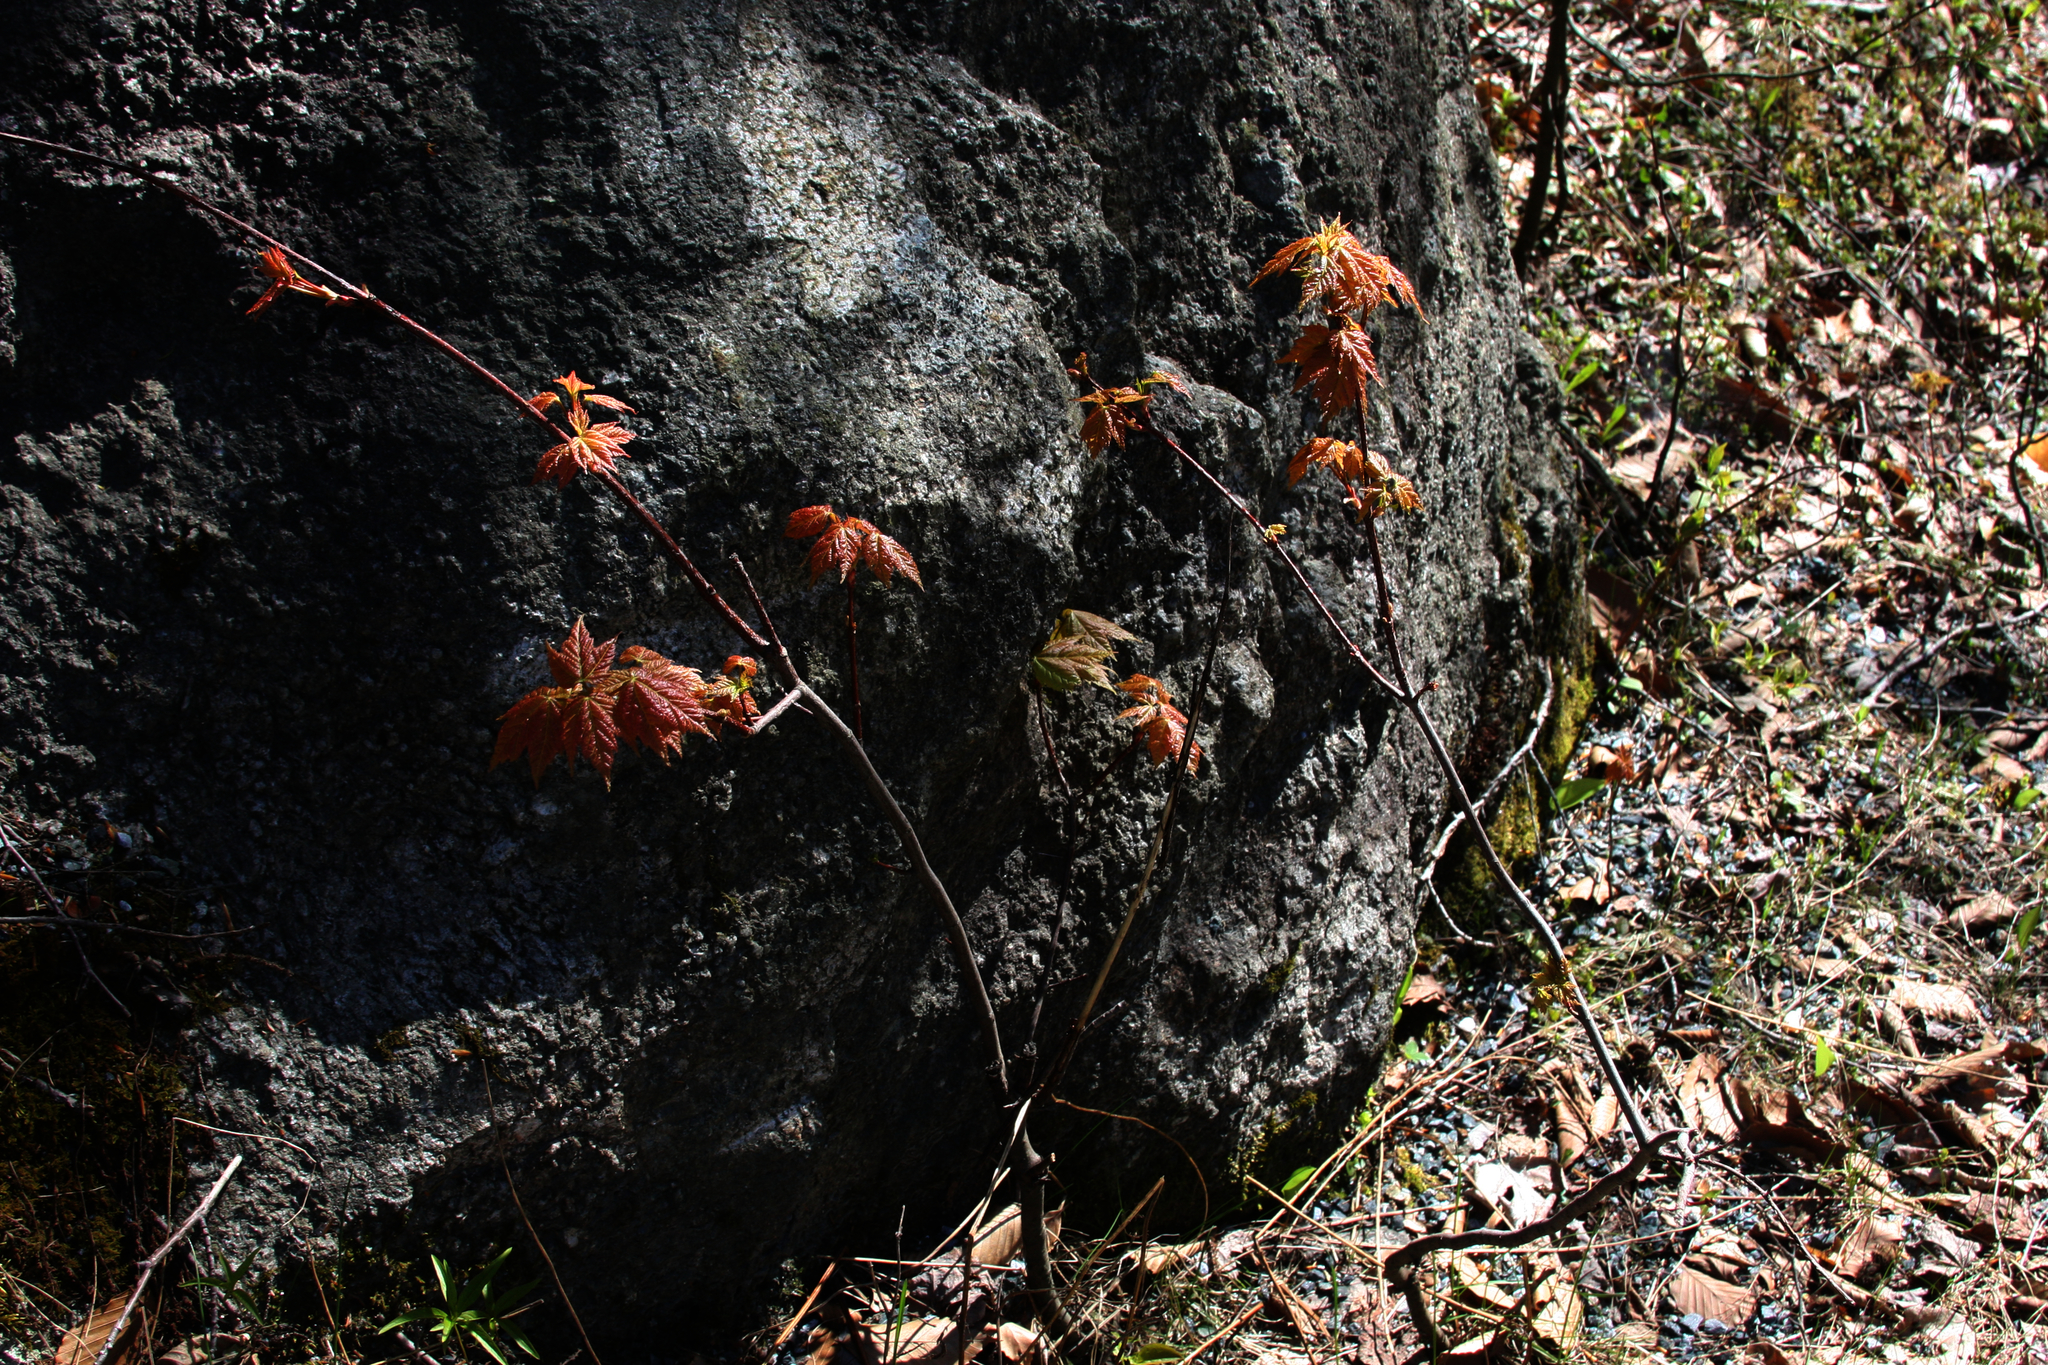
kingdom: Plantae
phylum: Tracheophyta
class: Magnoliopsida
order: Sapindales
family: Sapindaceae
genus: Acer
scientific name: Acer rubrum
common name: Red maple
